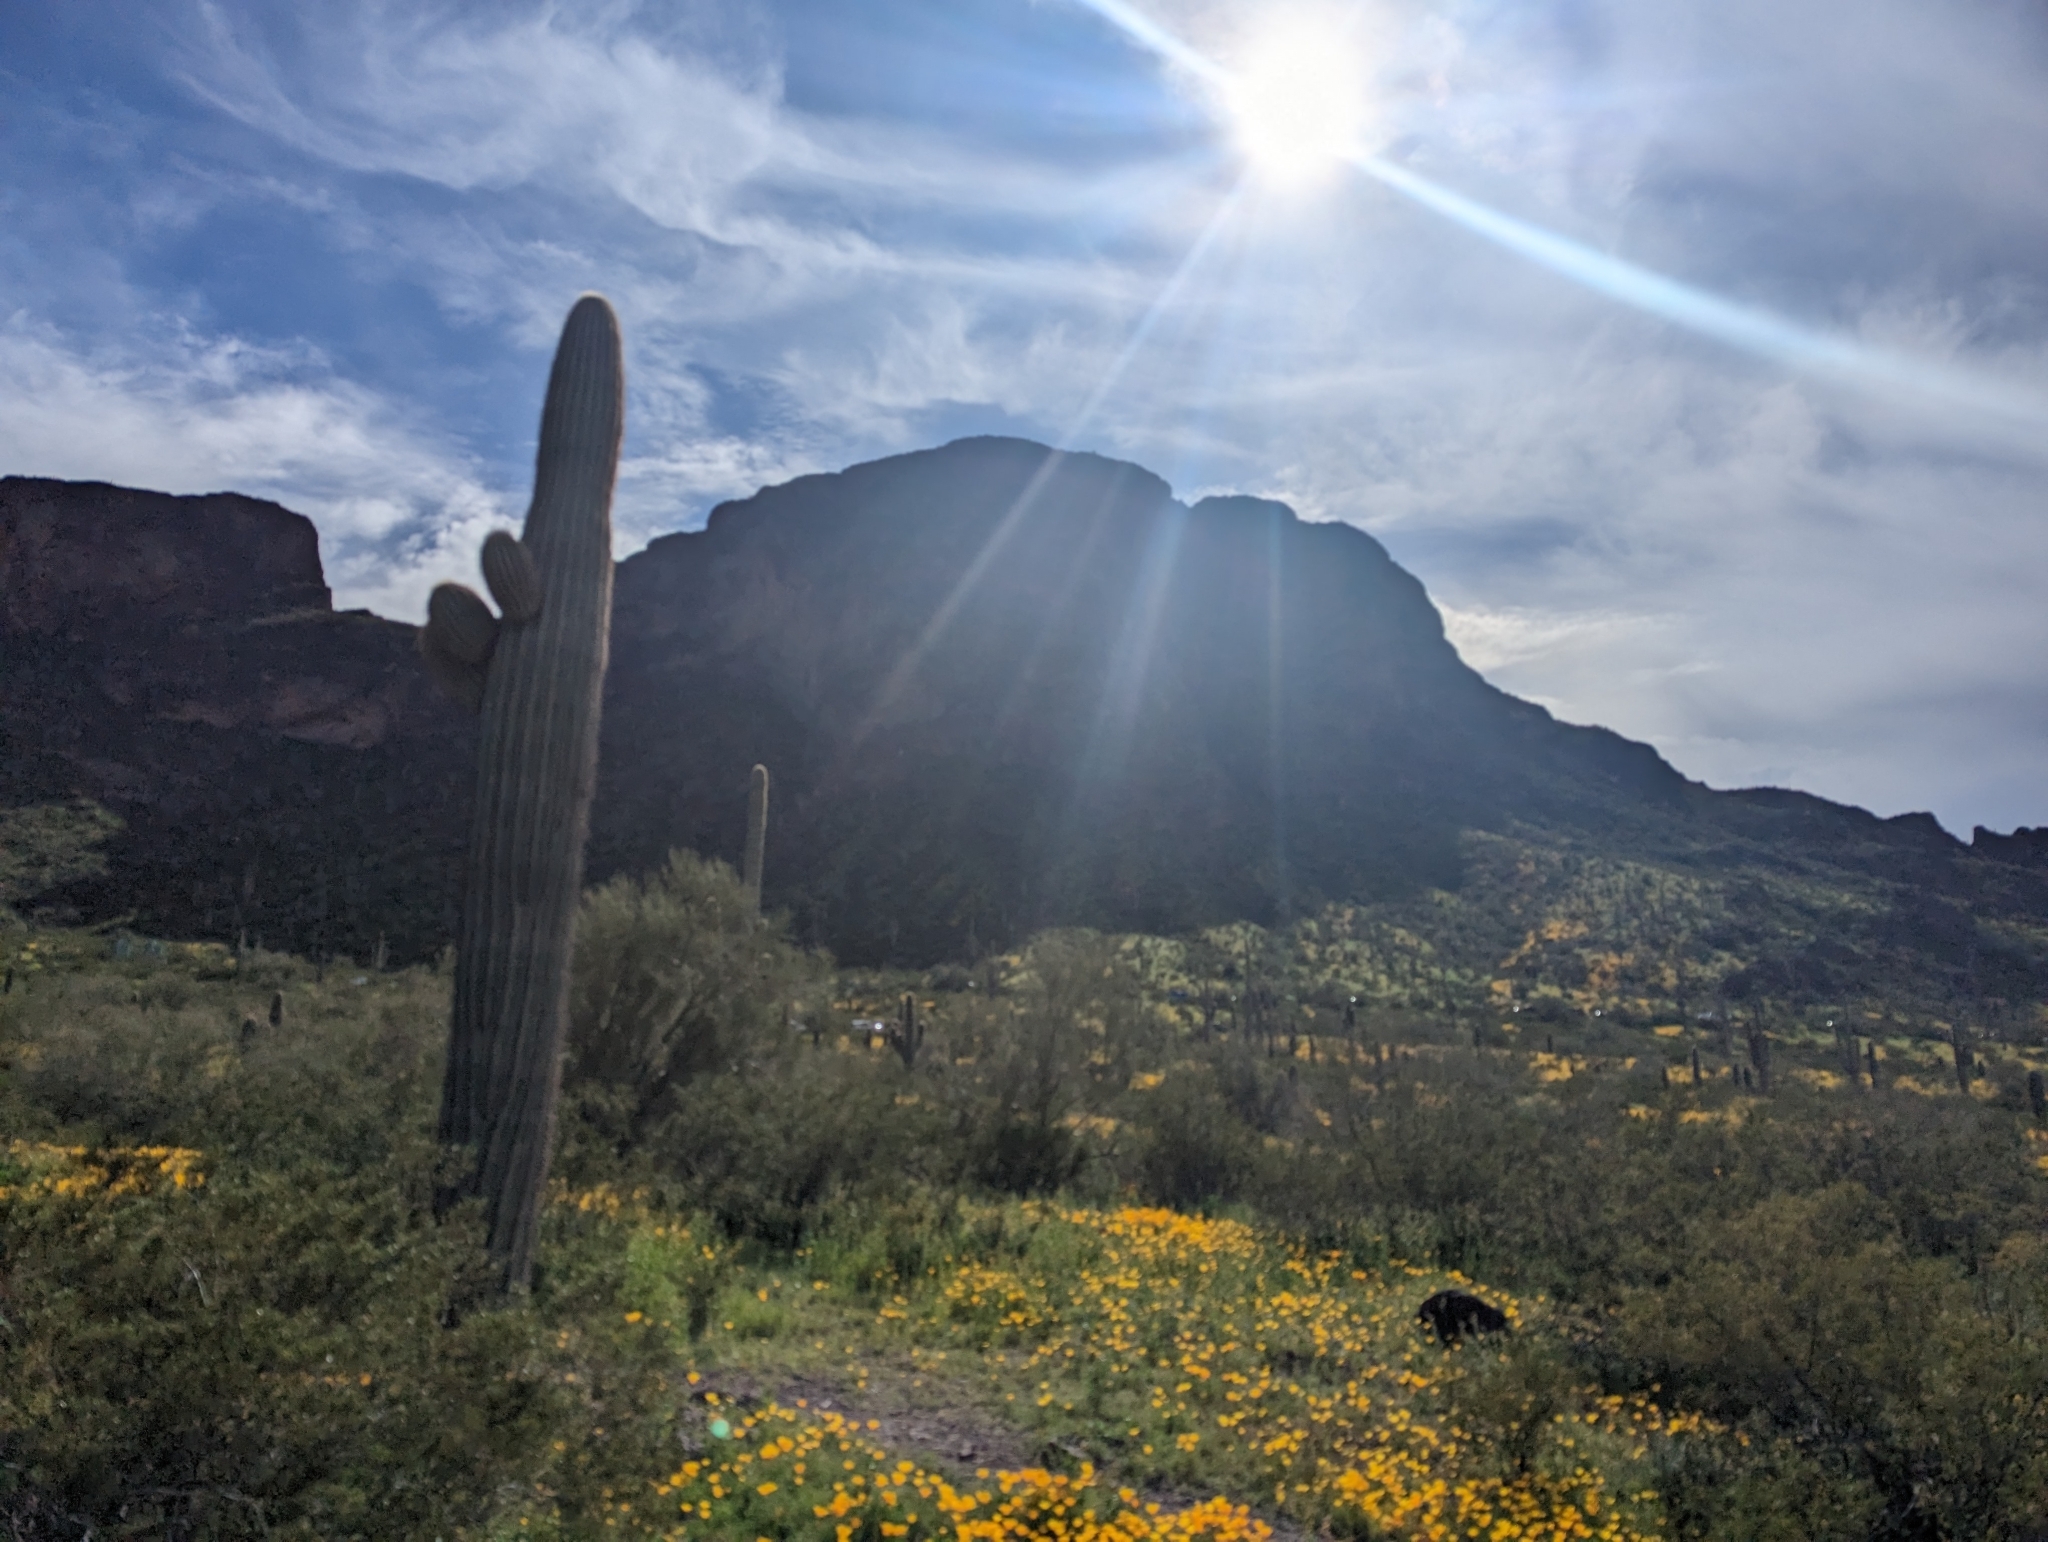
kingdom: Plantae
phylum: Tracheophyta
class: Magnoliopsida
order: Caryophyllales
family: Cactaceae
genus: Carnegiea
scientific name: Carnegiea gigantea
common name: Saguaro
